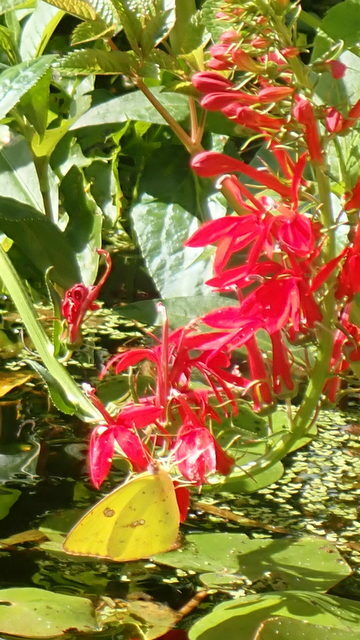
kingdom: Animalia
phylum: Arthropoda
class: Insecta
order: Lepidoptera
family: Pieridae
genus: Phoebis
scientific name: Phoebis sennae
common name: Cloudless sulphur
